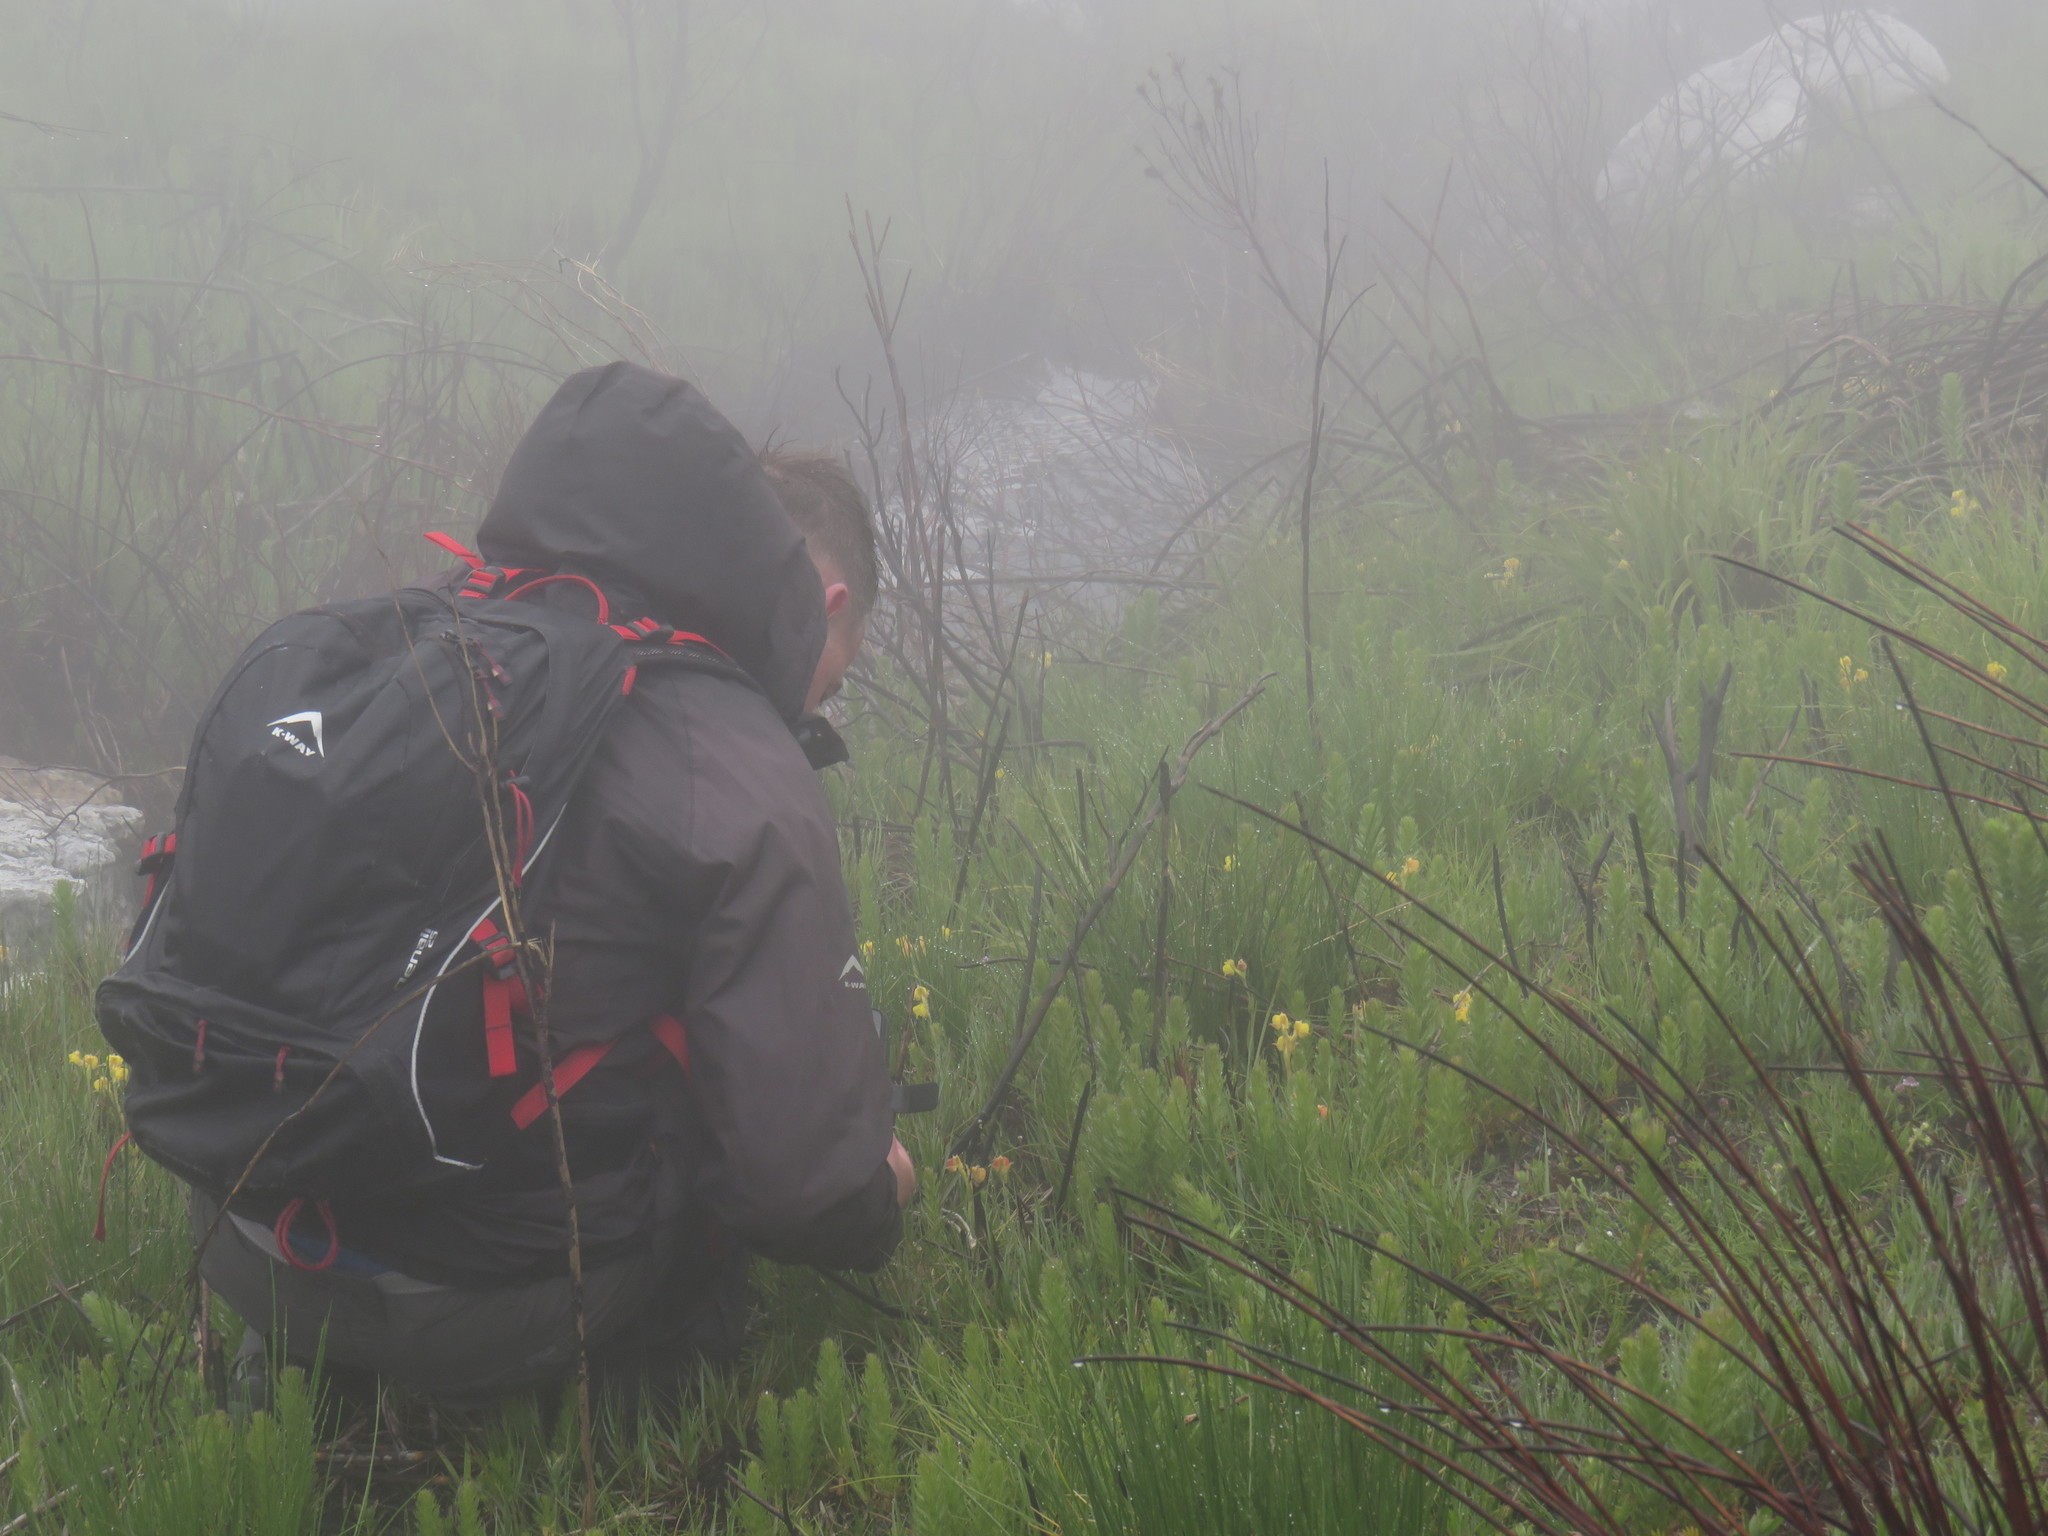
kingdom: Plantae
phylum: Tracheophyta
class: Liliopsida
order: Asparagales
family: Orchidaceae
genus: Pterygodium
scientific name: Pterygodium acutifolium
